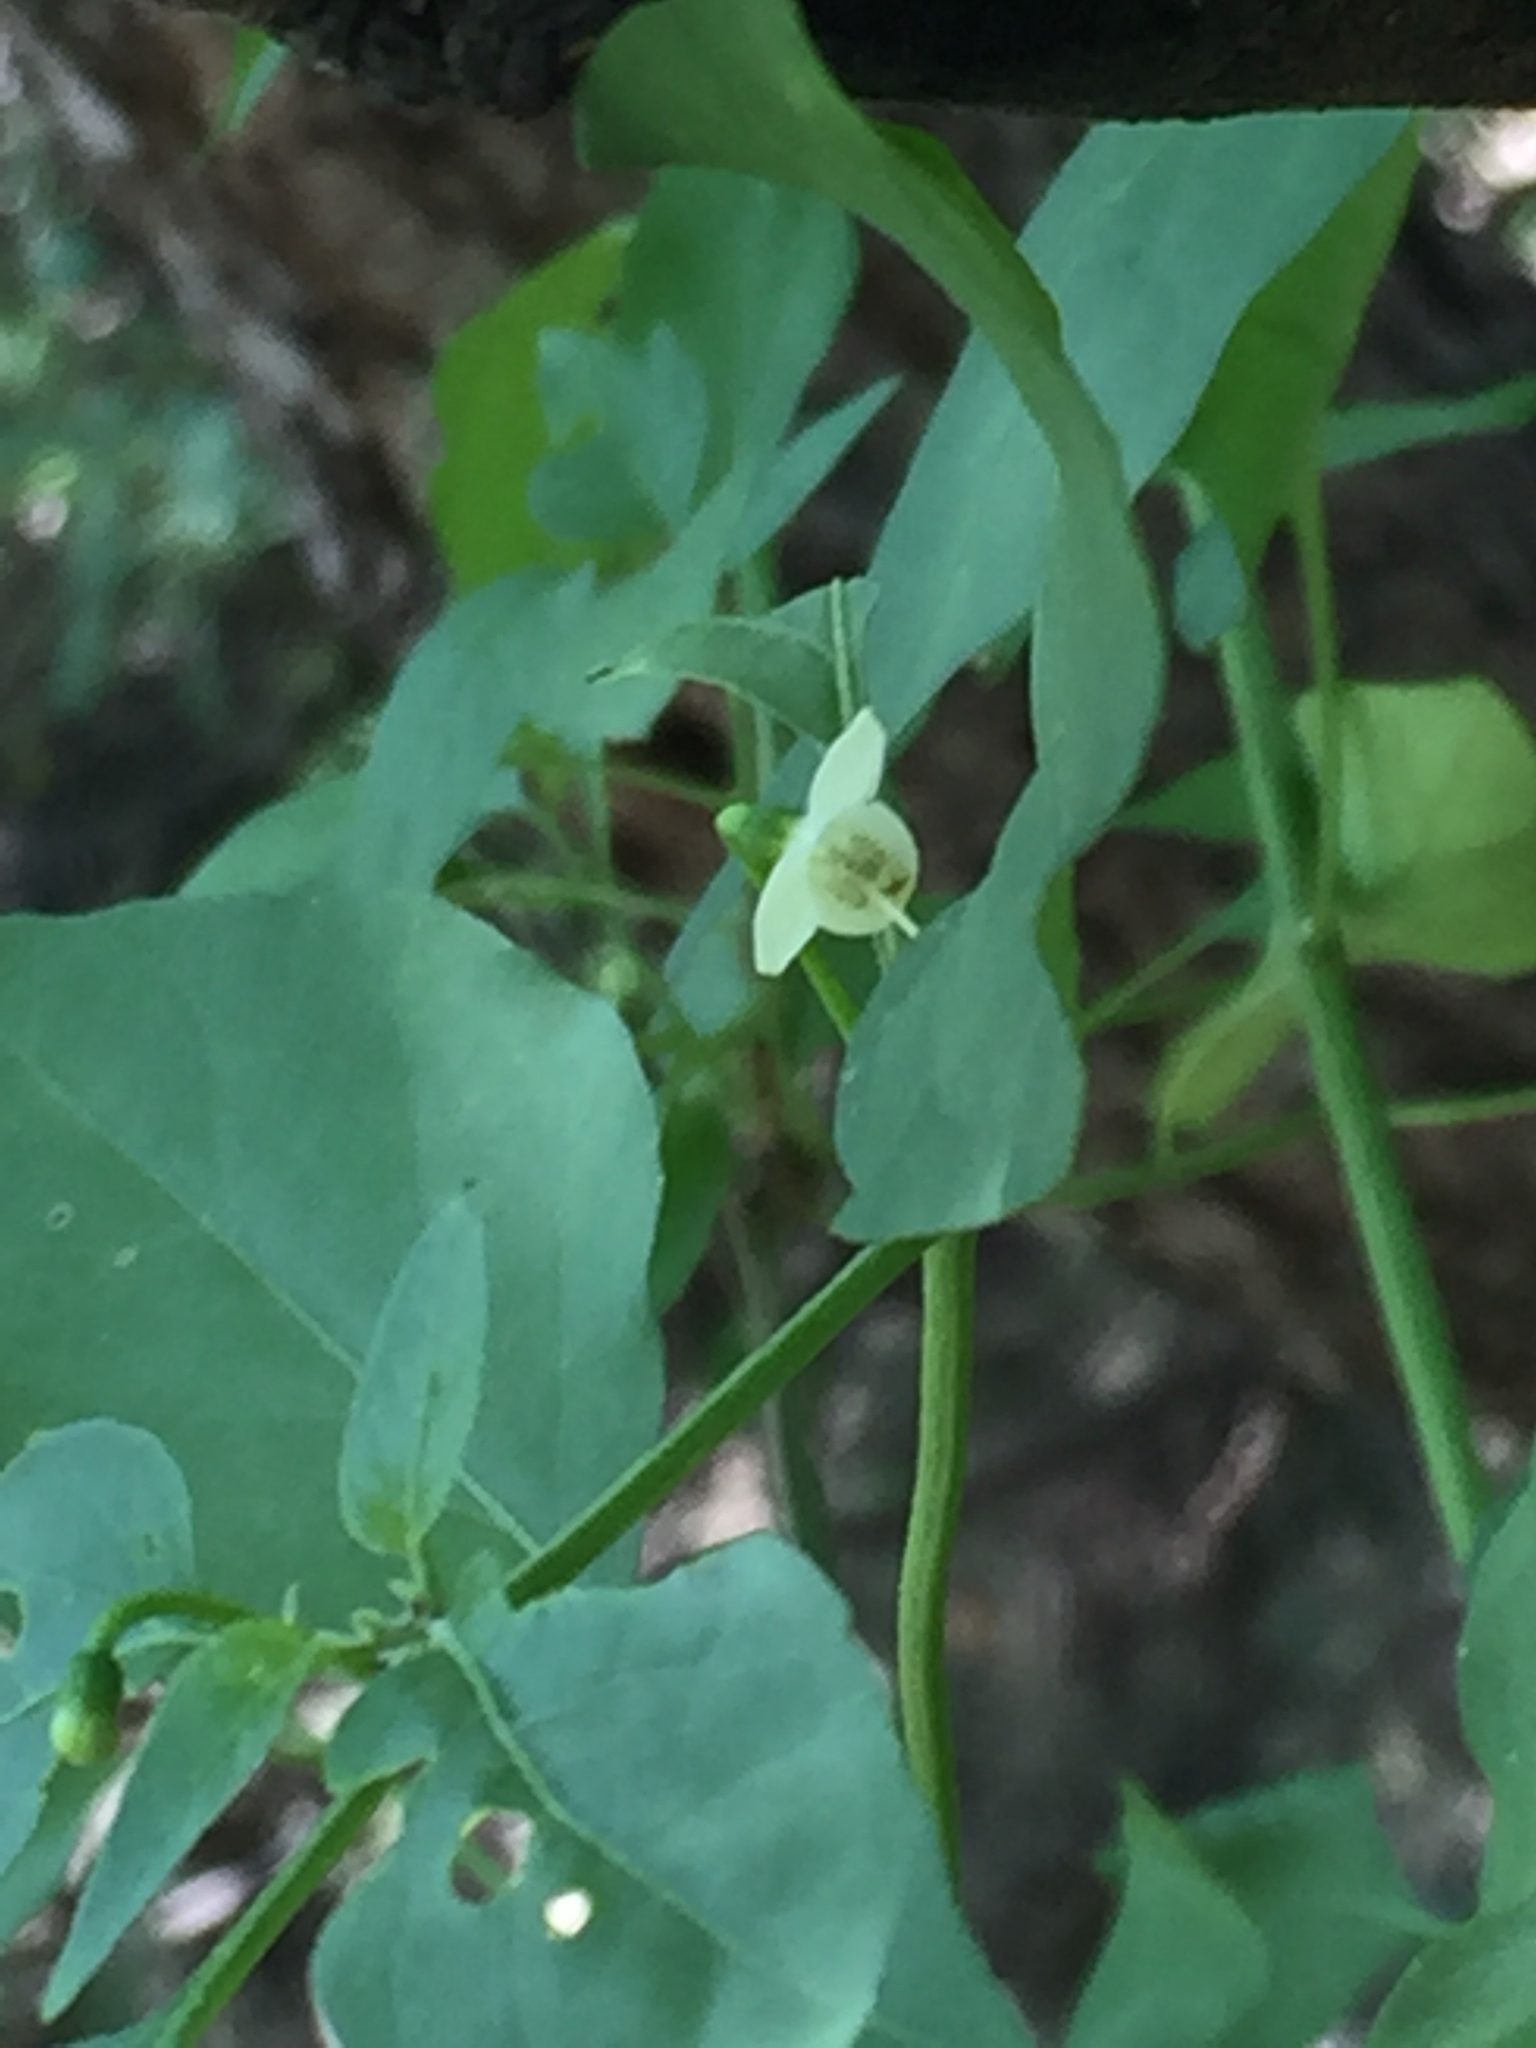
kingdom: Plantae
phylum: Tracheophyta
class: Magnoliopsida
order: Solanales
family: Solanaceae
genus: Capsicum
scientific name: Capsicum annuum
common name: Sweet pepper
